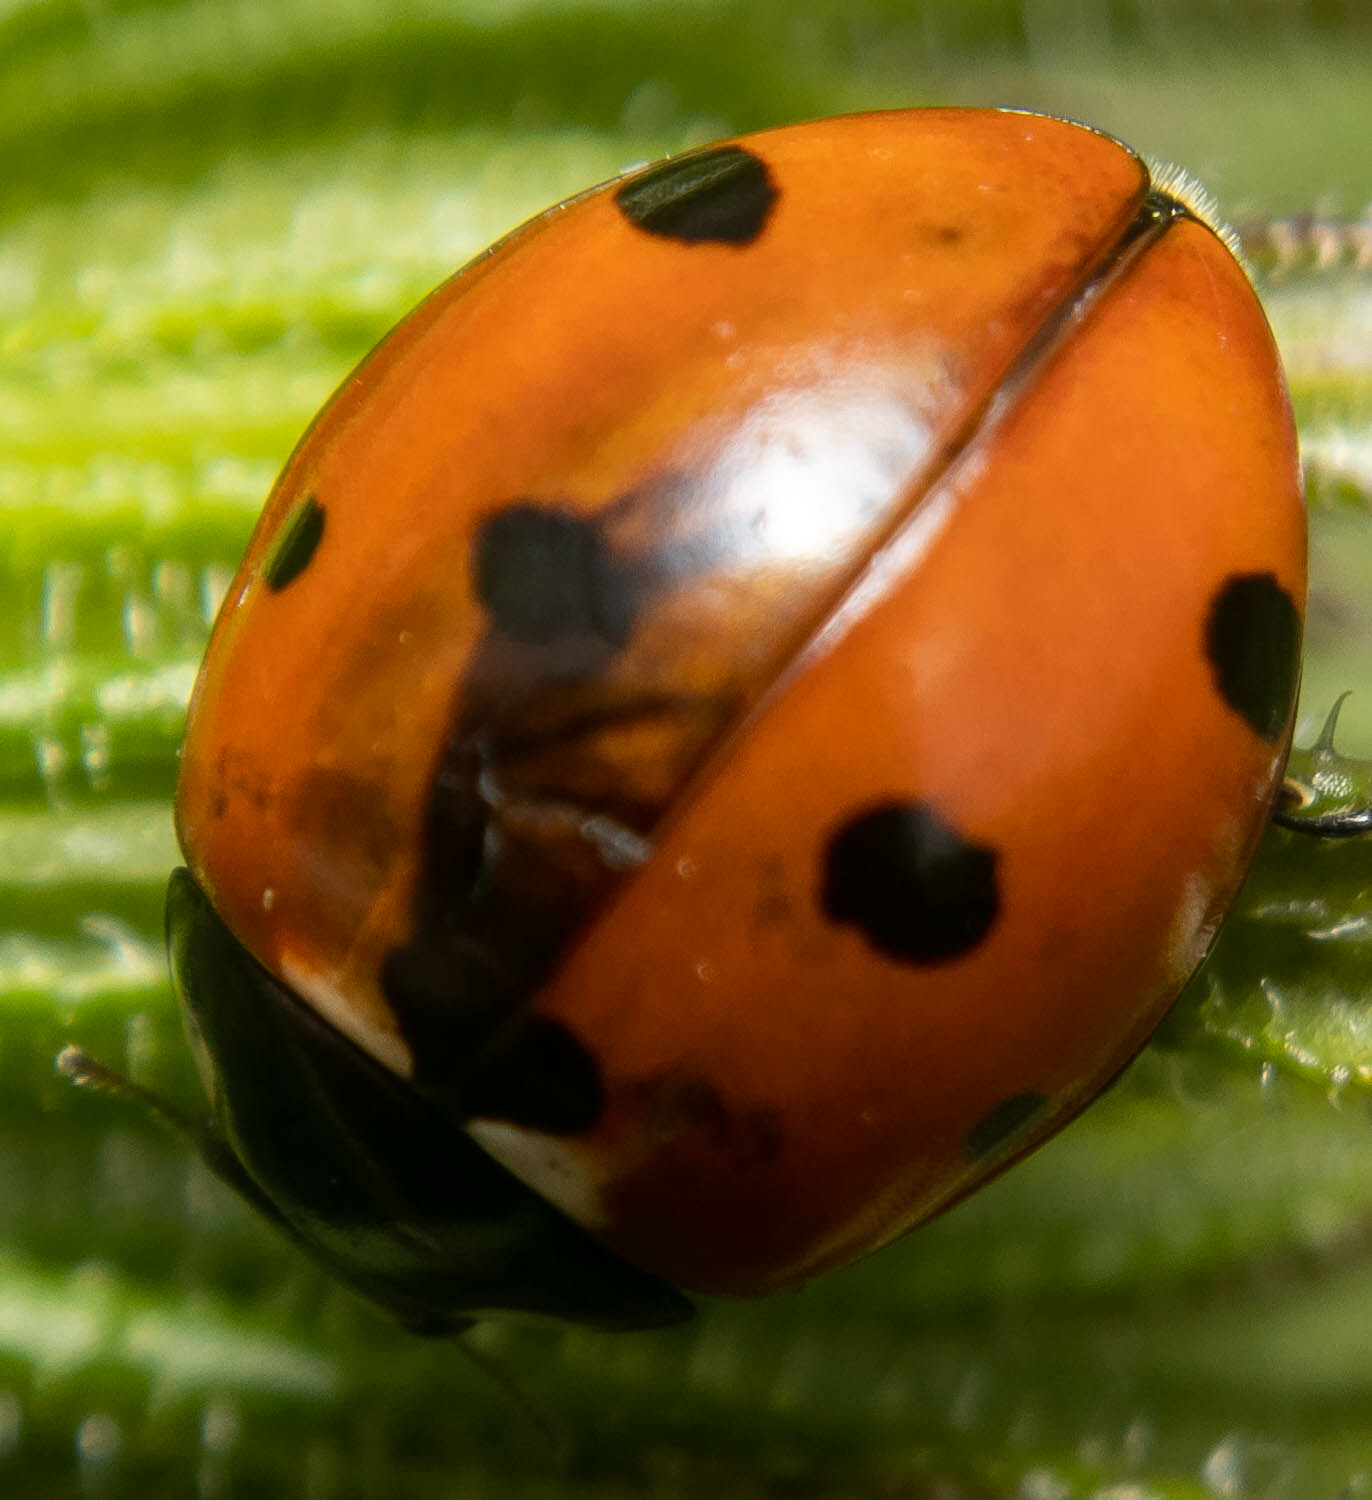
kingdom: Animalia
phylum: Arthropoda
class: Insecta
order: Coleoptera
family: Coccinellidae
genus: Coccinella
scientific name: Coccinella septempunctata
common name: Sevenspotted lady beetle
